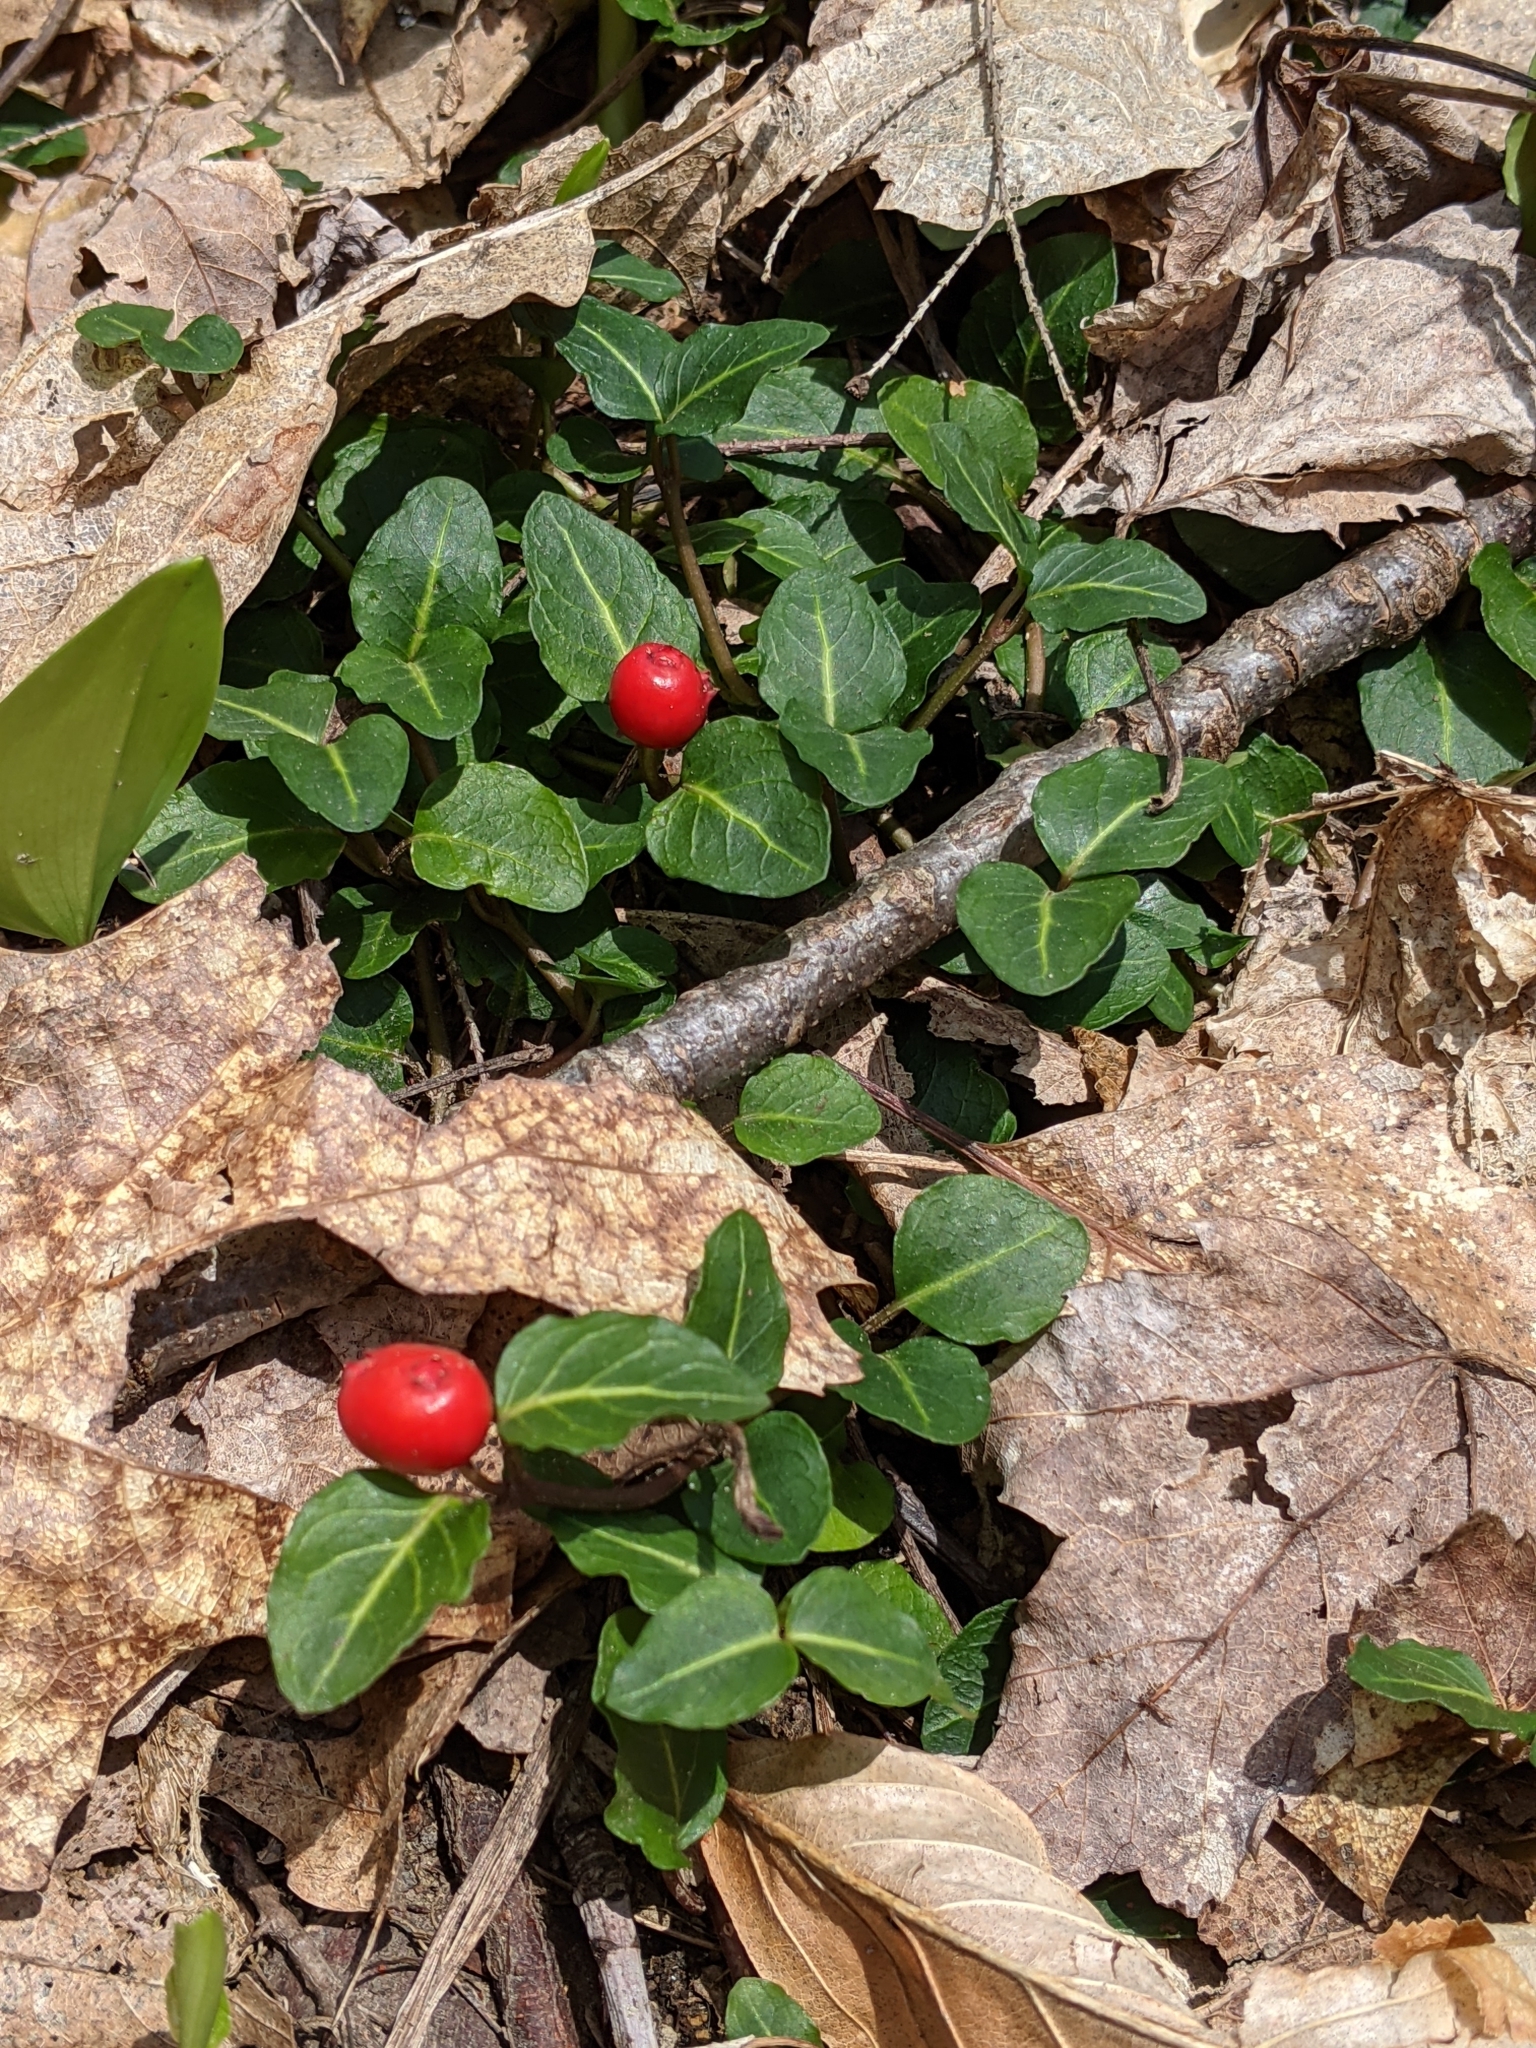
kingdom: Plantae
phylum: Tracheophyta
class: Magnoliopsida
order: Gentianales
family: Rubiaceae
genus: Mitchella
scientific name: Mitchella repens
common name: Partridge-berry
